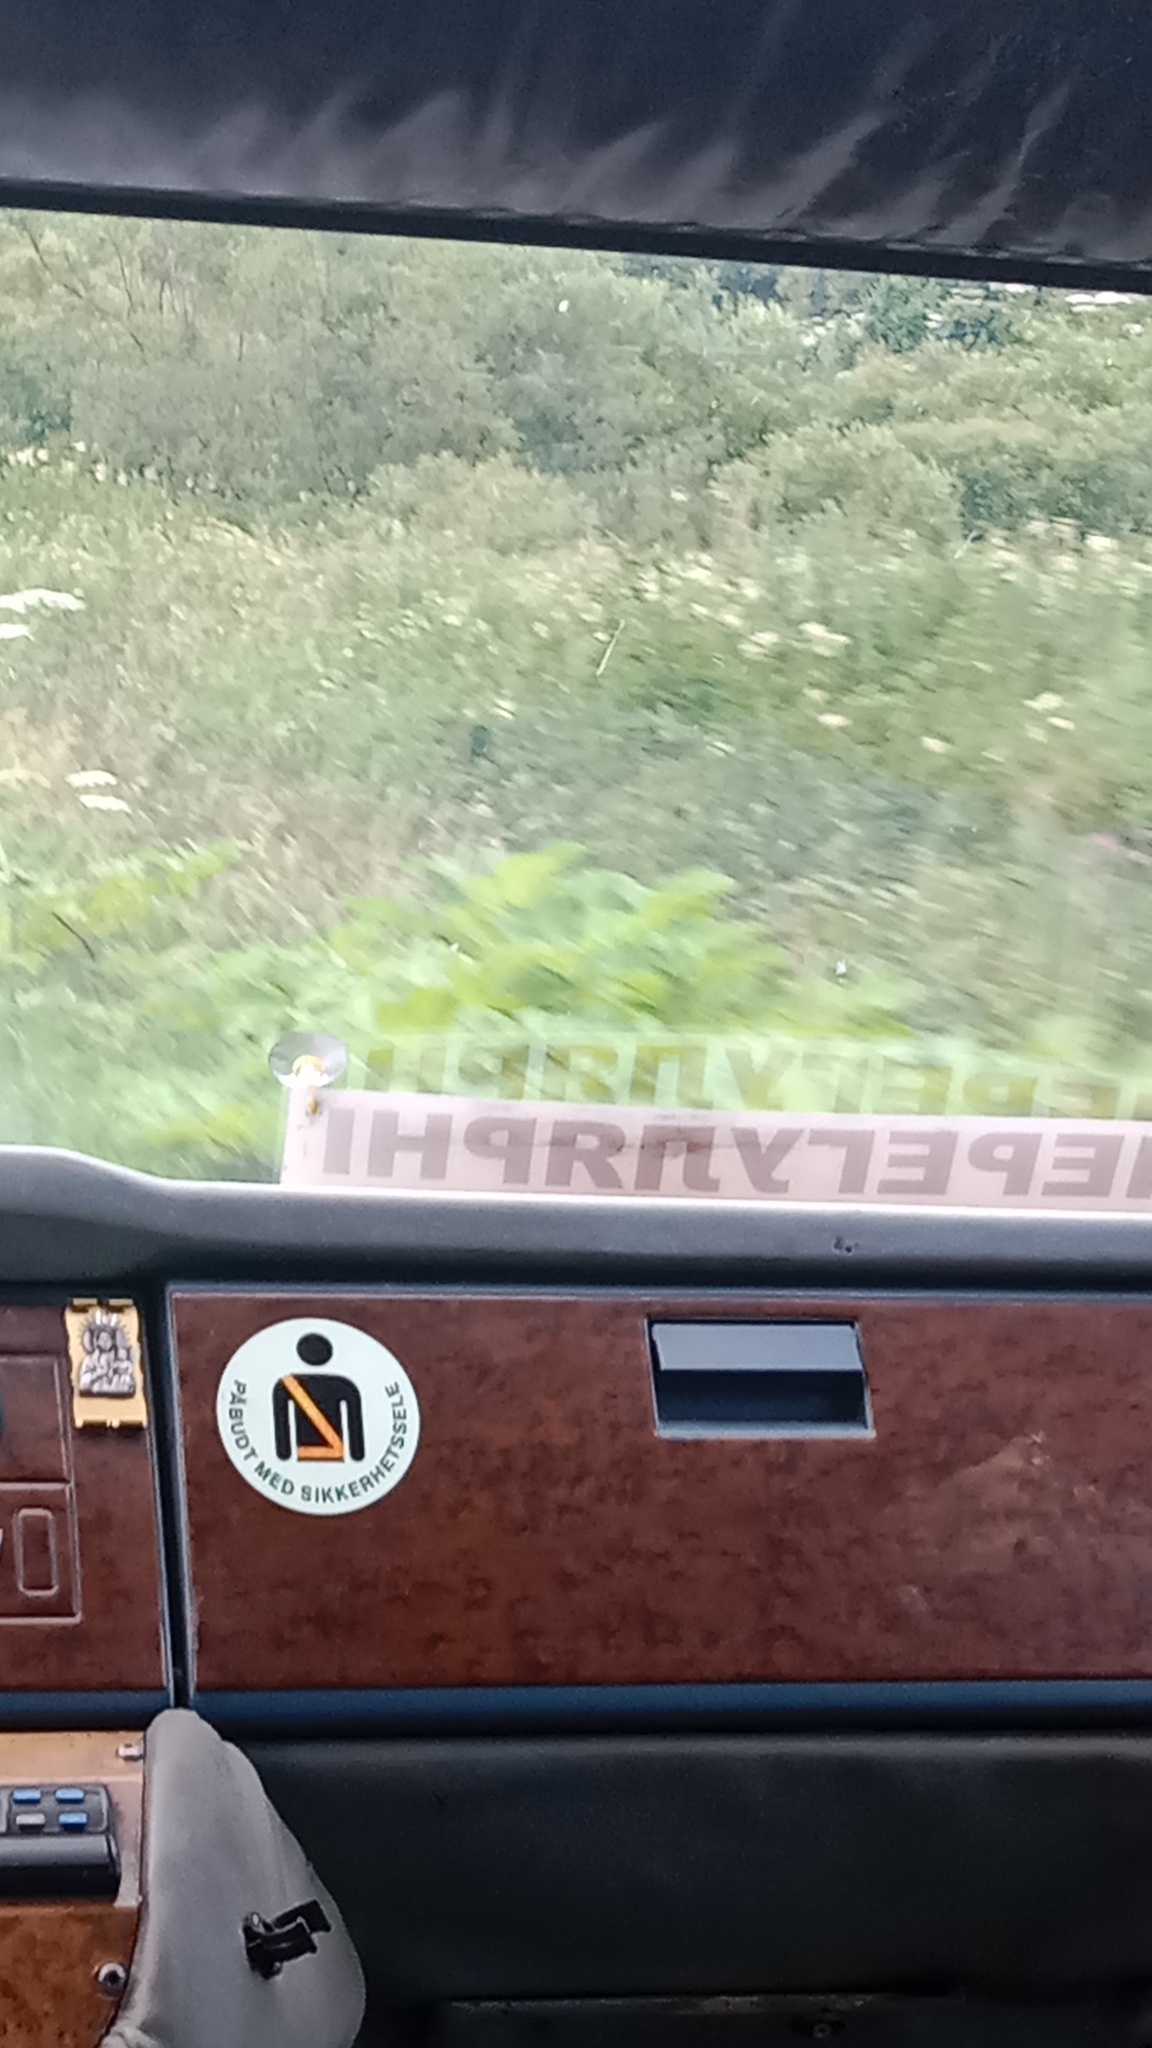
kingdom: Plantae
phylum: Tracheophyta
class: Magnoliopsida
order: Apiales
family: Apiaceae
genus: Heracleum
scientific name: Heracleum sosnowskyi
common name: Sosnowsky's hogweed
